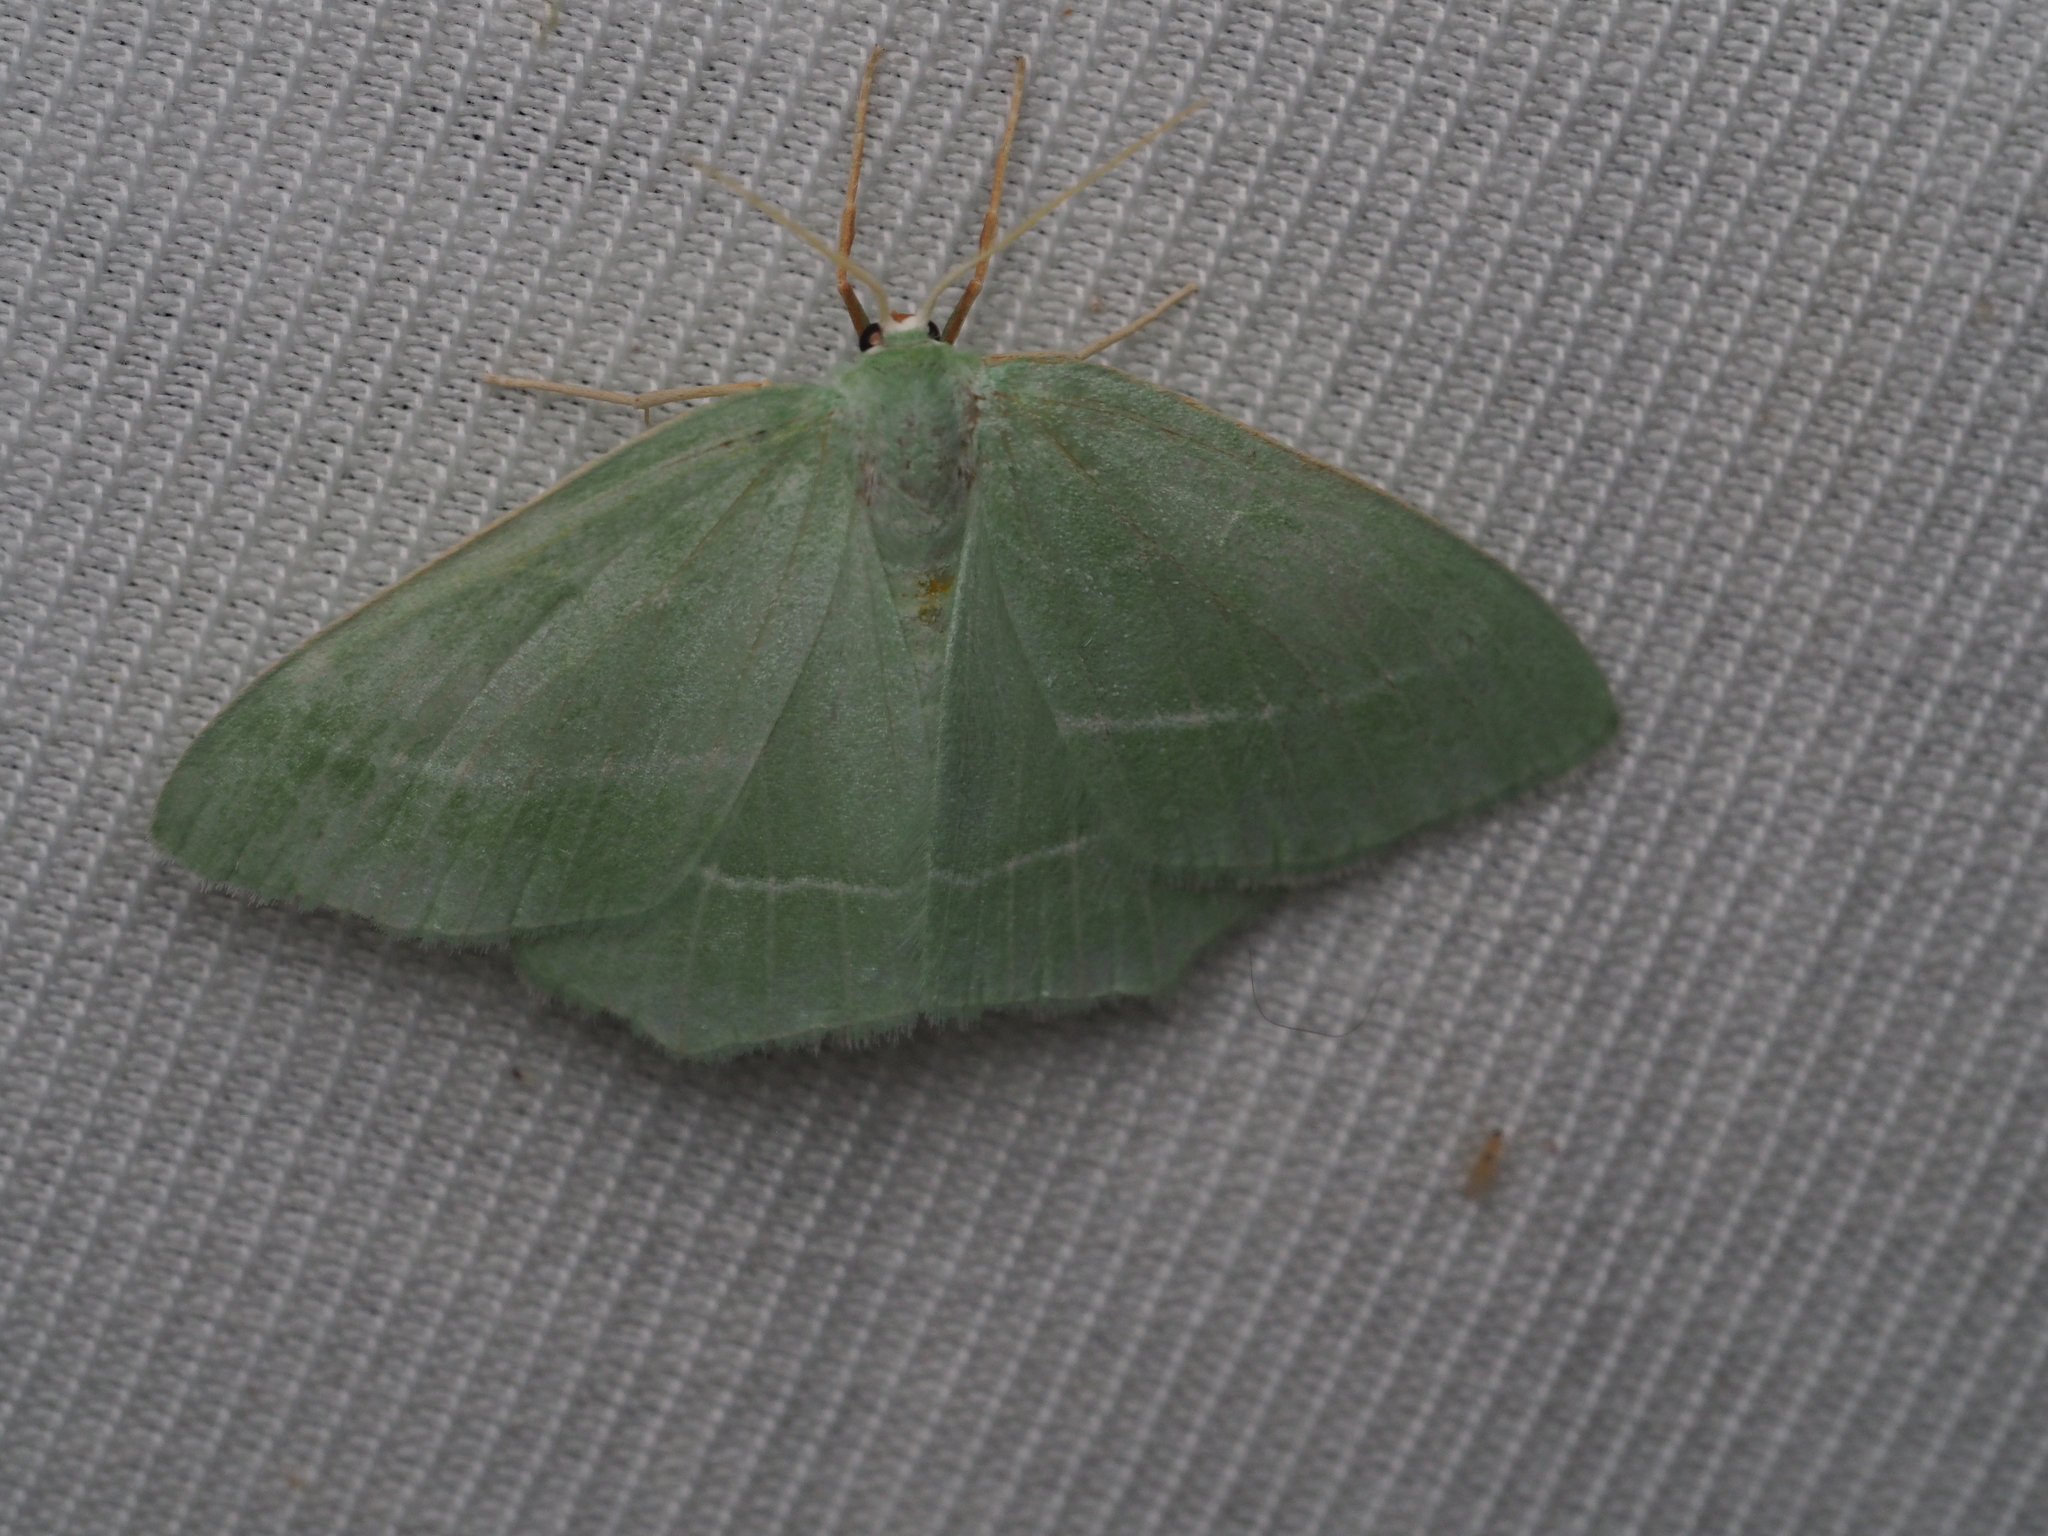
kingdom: Animalia
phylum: Arthropoda
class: Insecta
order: Lepidoptera
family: Geometridae
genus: Hemistola
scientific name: Hemistola chrysoprasaria
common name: Small emerald
